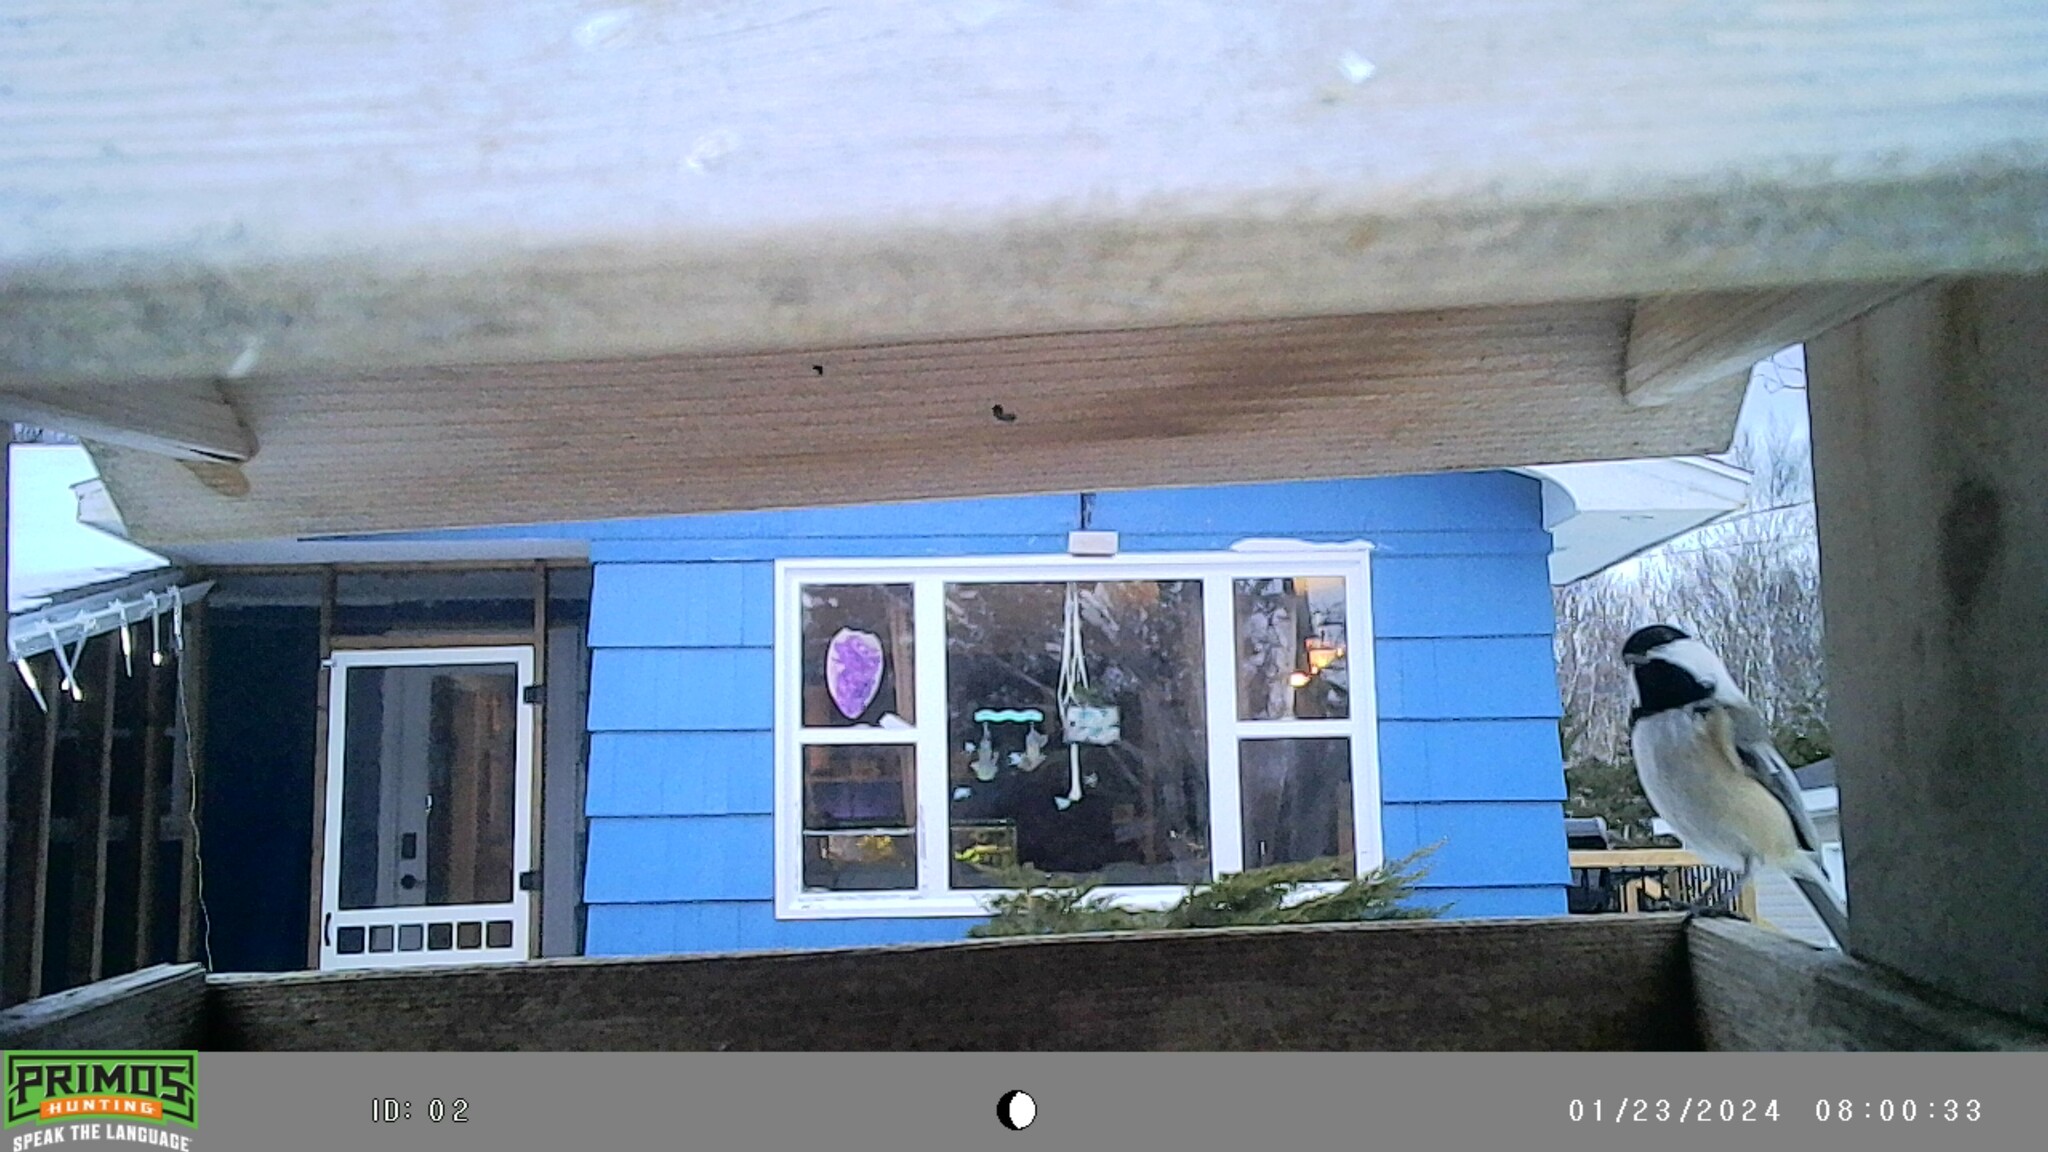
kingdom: Animalia
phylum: Chordata
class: Aves
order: Passeriformes
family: Paridae
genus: Poecile
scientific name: Poecile atricapillus
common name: Black-capped chickadee
